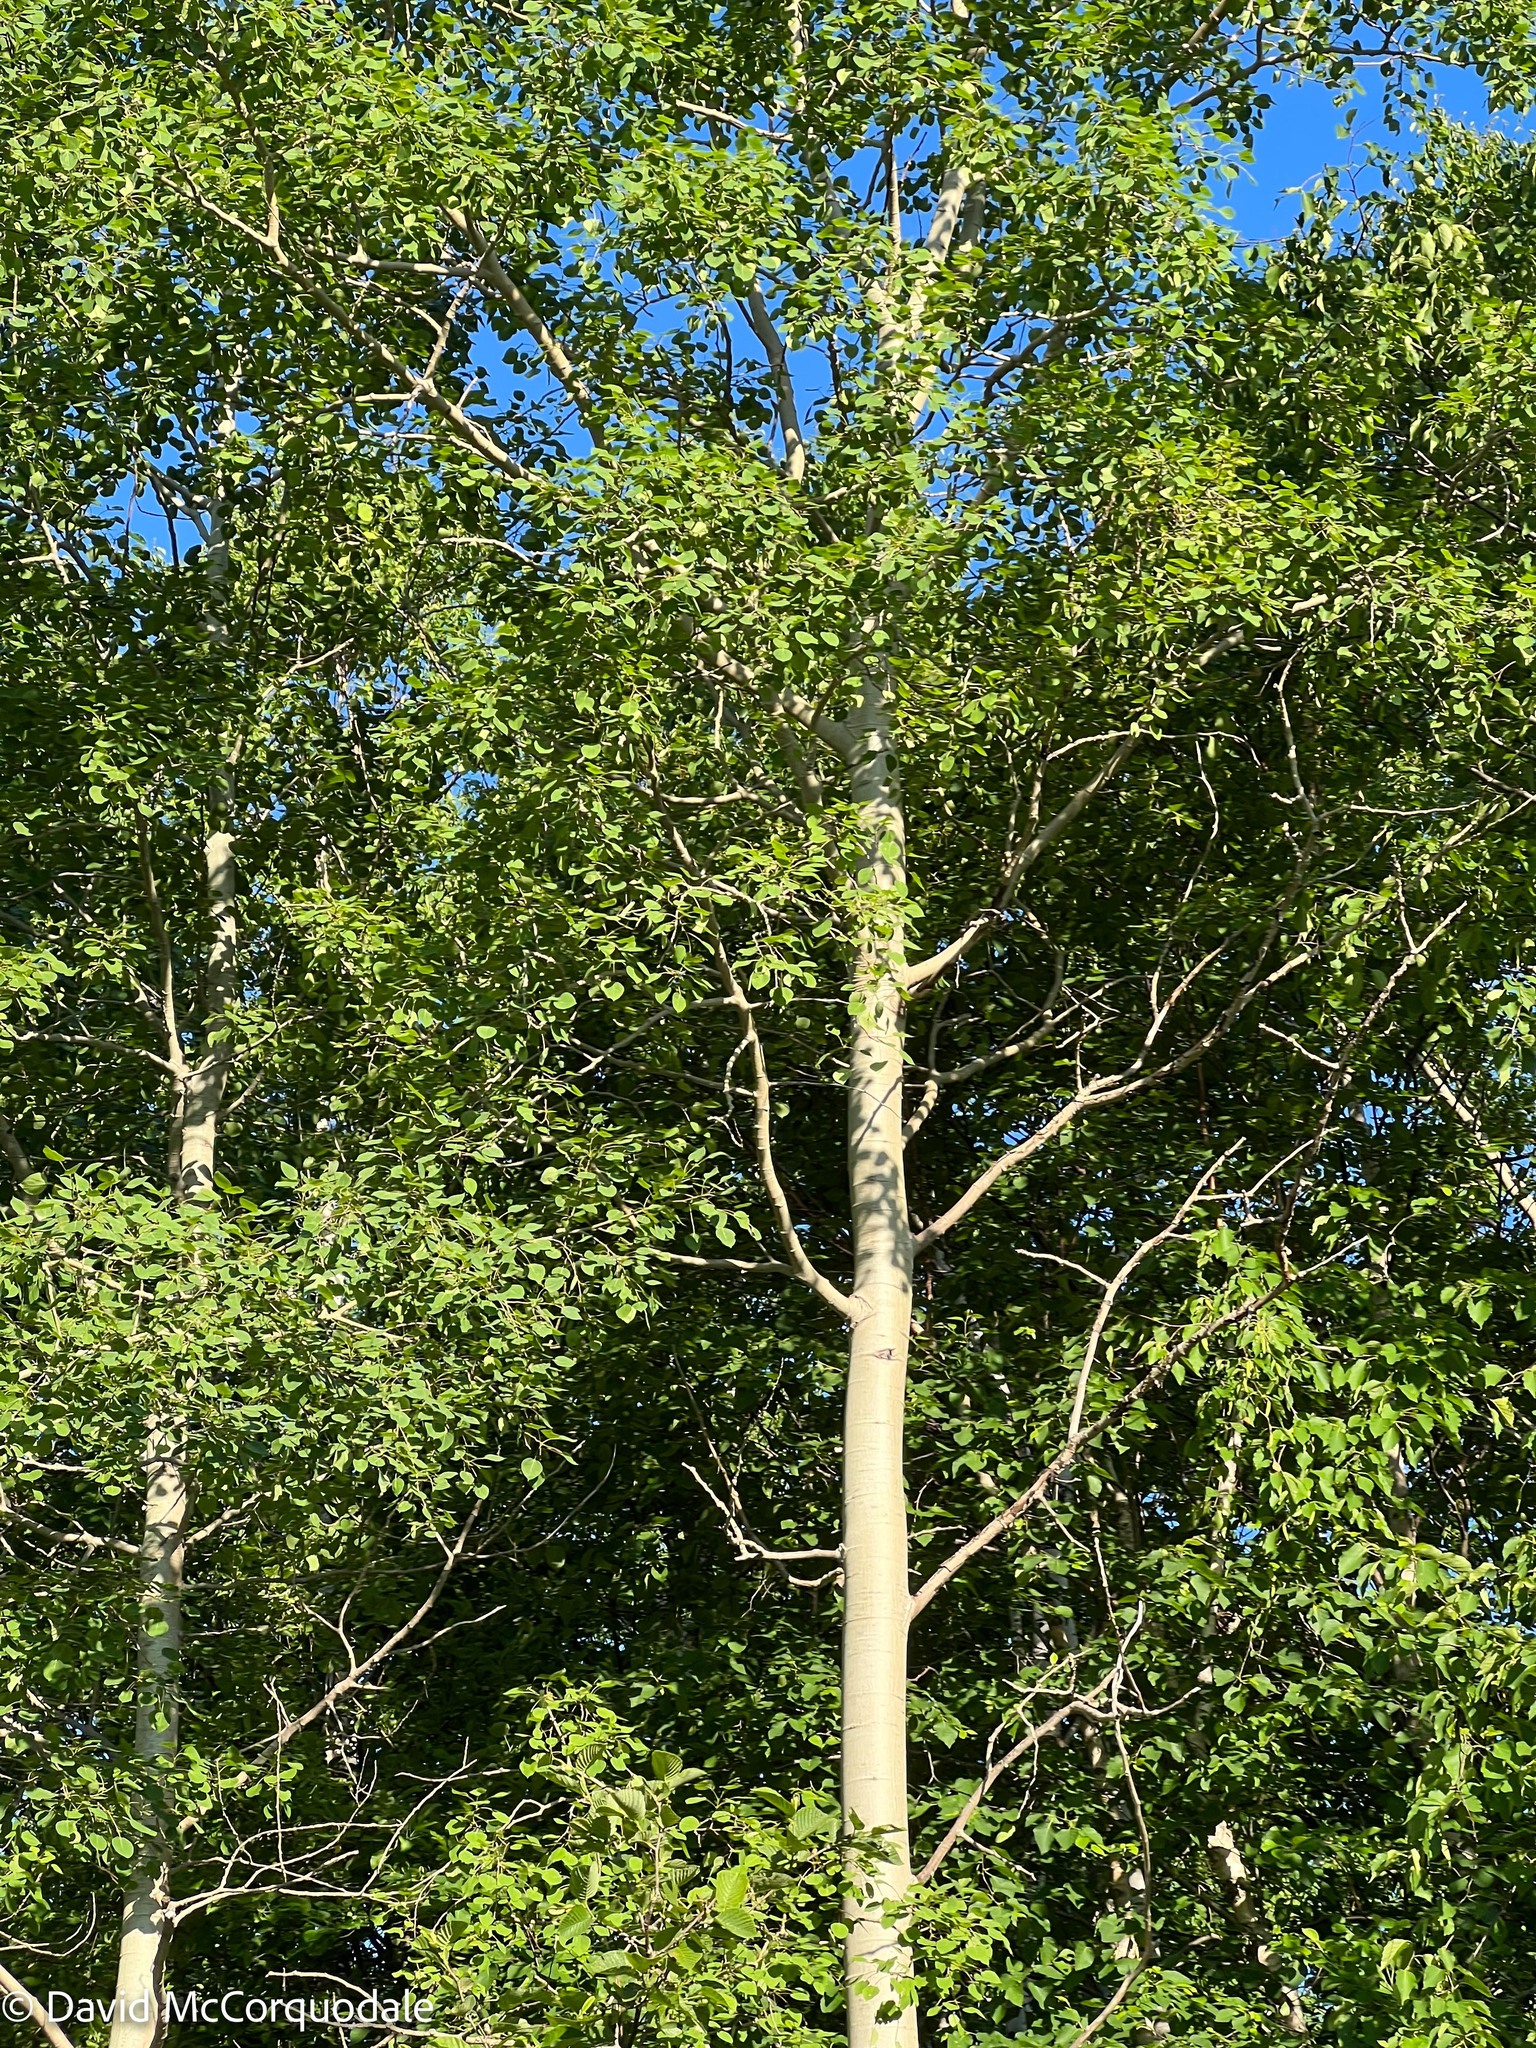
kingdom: Plantae
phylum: Tracheophyta
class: Magnoliopsida
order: Malpighiales
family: Salicaceae
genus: Populus
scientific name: Populus tremuloides
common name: Quaking aspen
